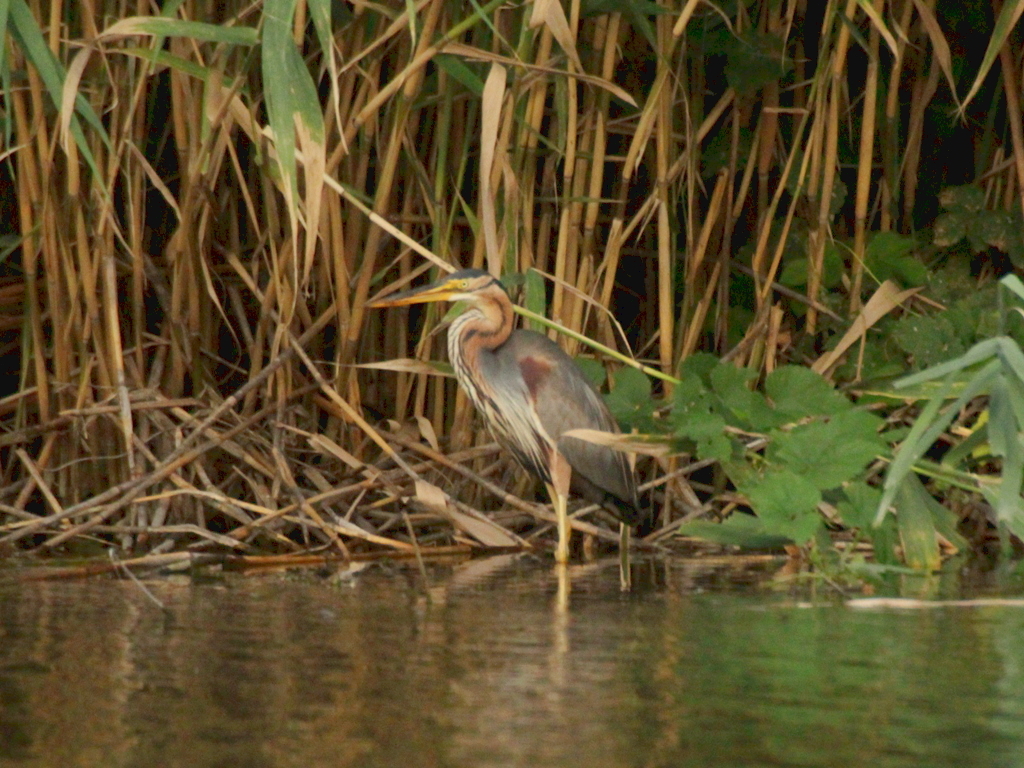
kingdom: Animalia
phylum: Chordata
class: Aves
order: Pelecaniformes
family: Ardeidae
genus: Ardea
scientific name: Ardea purpurea
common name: Purple heron
